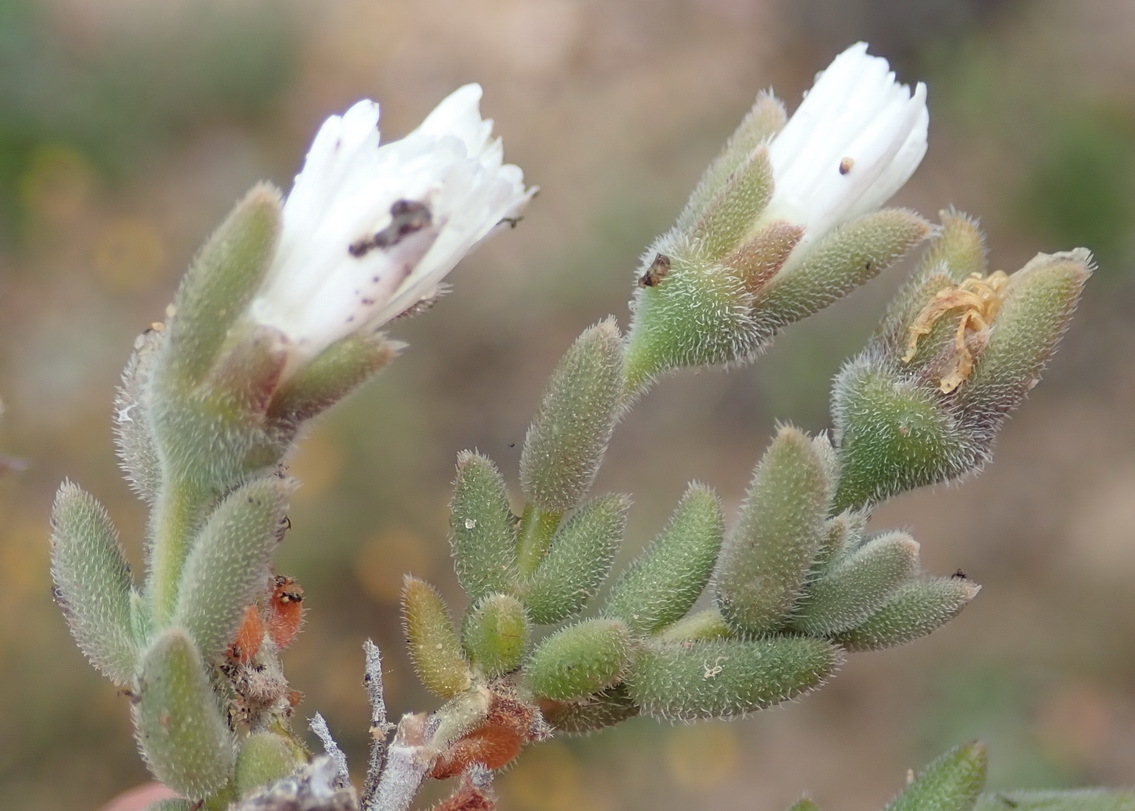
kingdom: Plantae
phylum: Tracheophyta
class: Magnoliopsida
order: Caryophyllales
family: Aizoaceae
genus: Trichodiadema
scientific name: Trichodiadema attonsum
